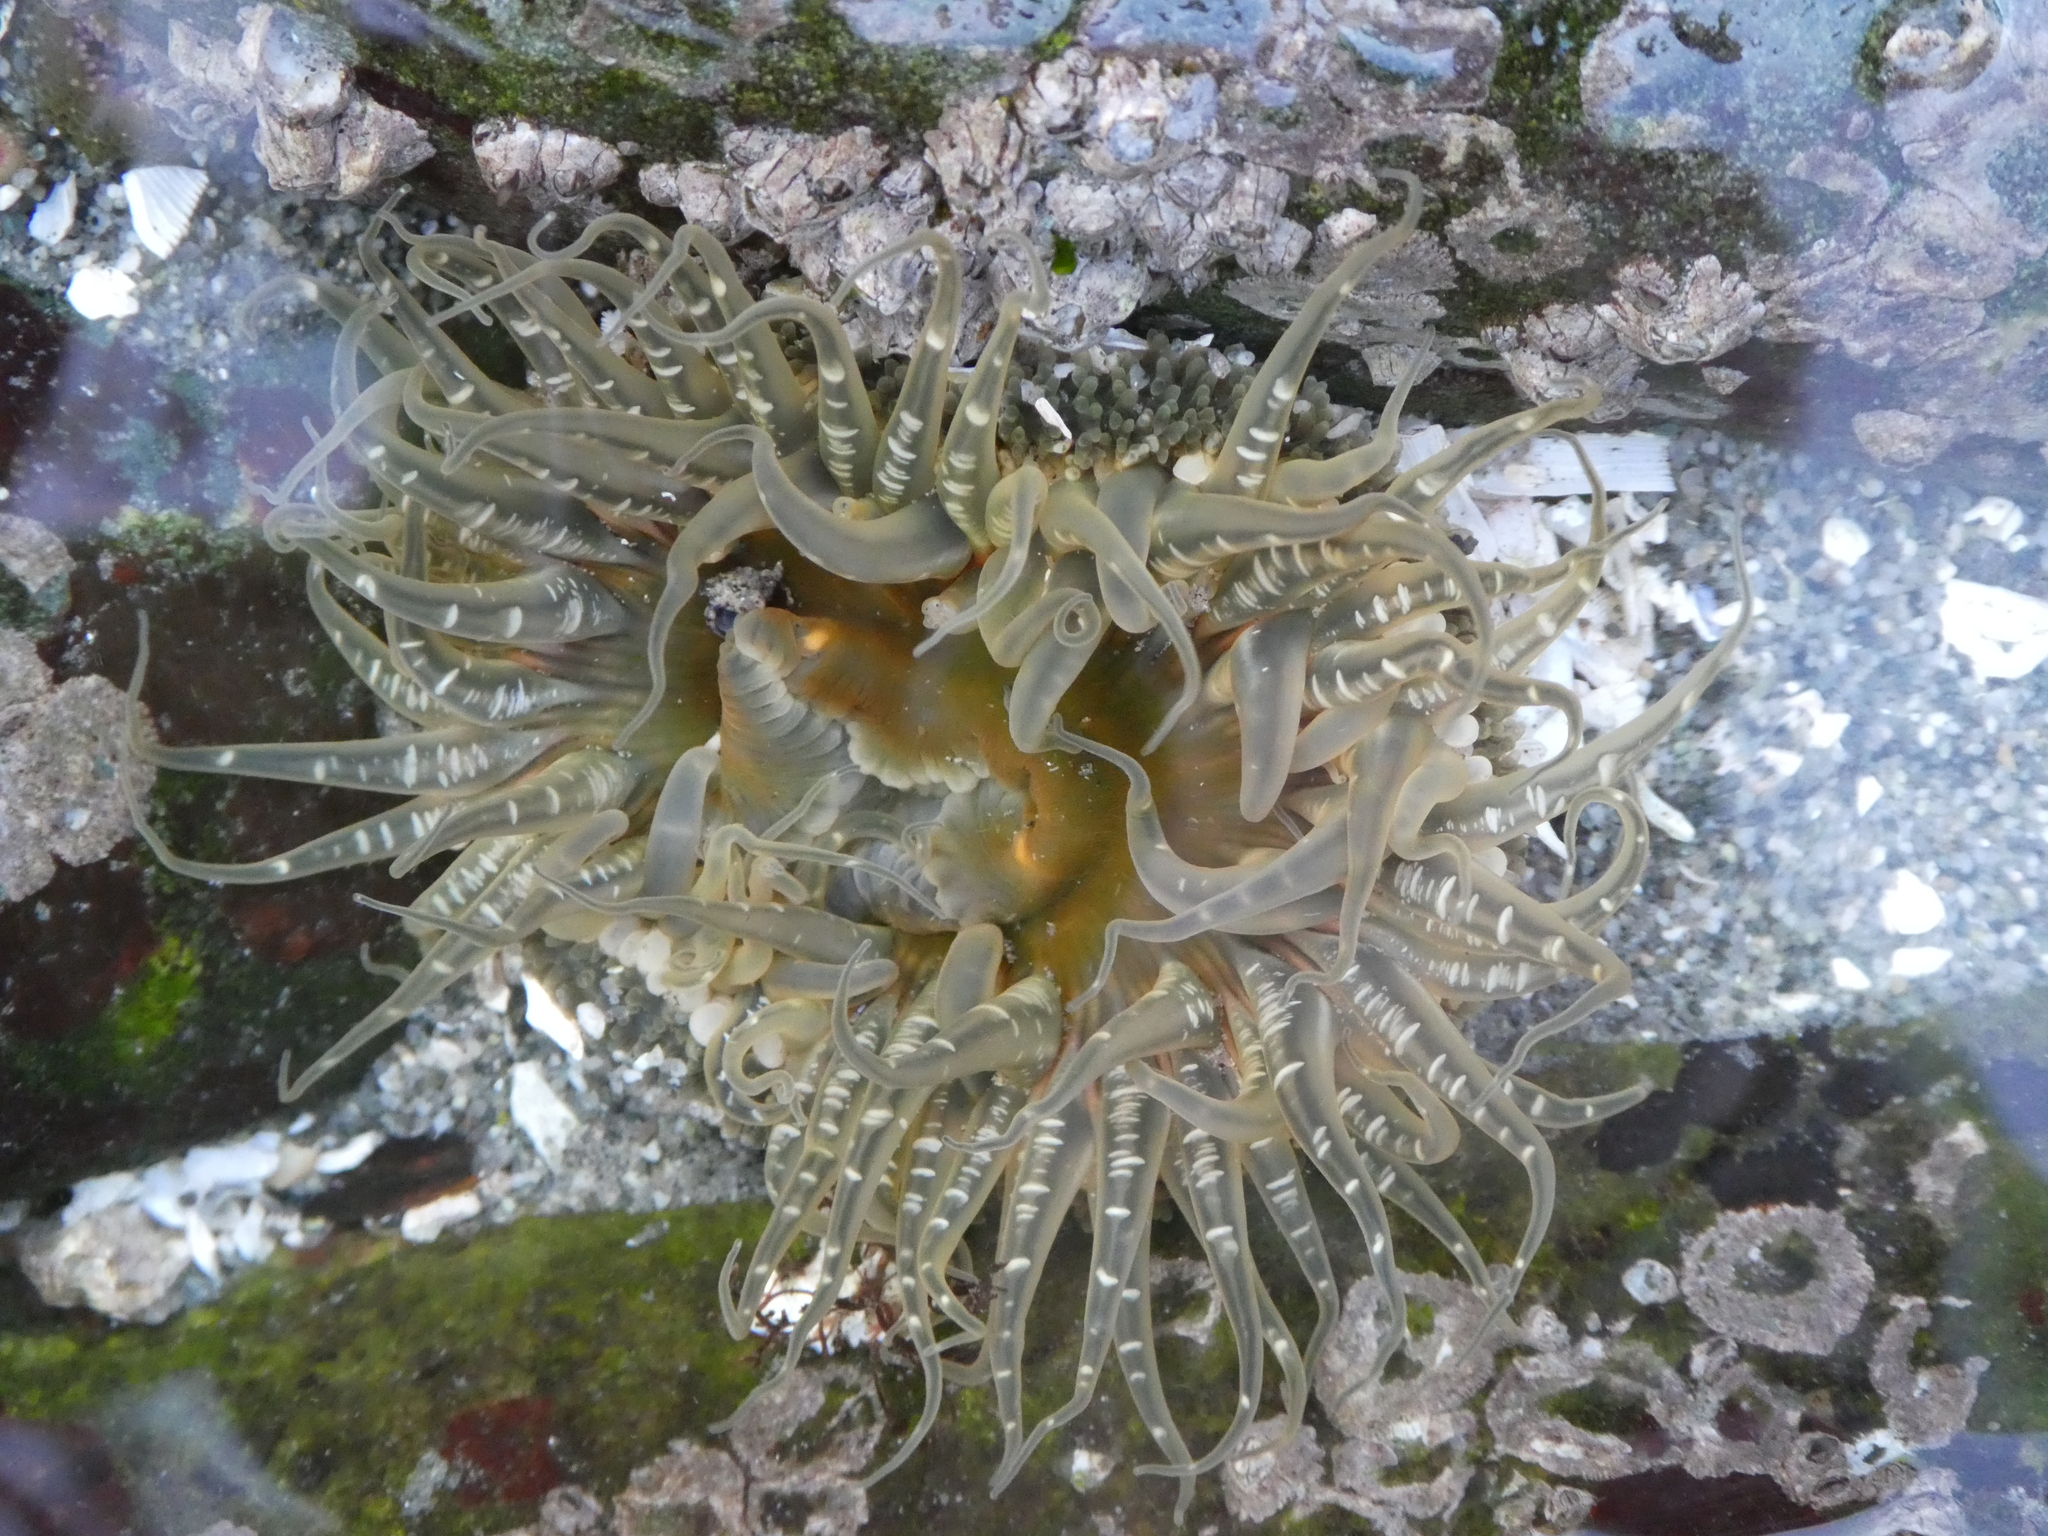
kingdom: Animalia
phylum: Cnidaria
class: Anthozoa
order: Actiniaria
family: Actiniidae
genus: Anthopleura
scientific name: Anthopleura artemisia
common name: Buried sea anemone
